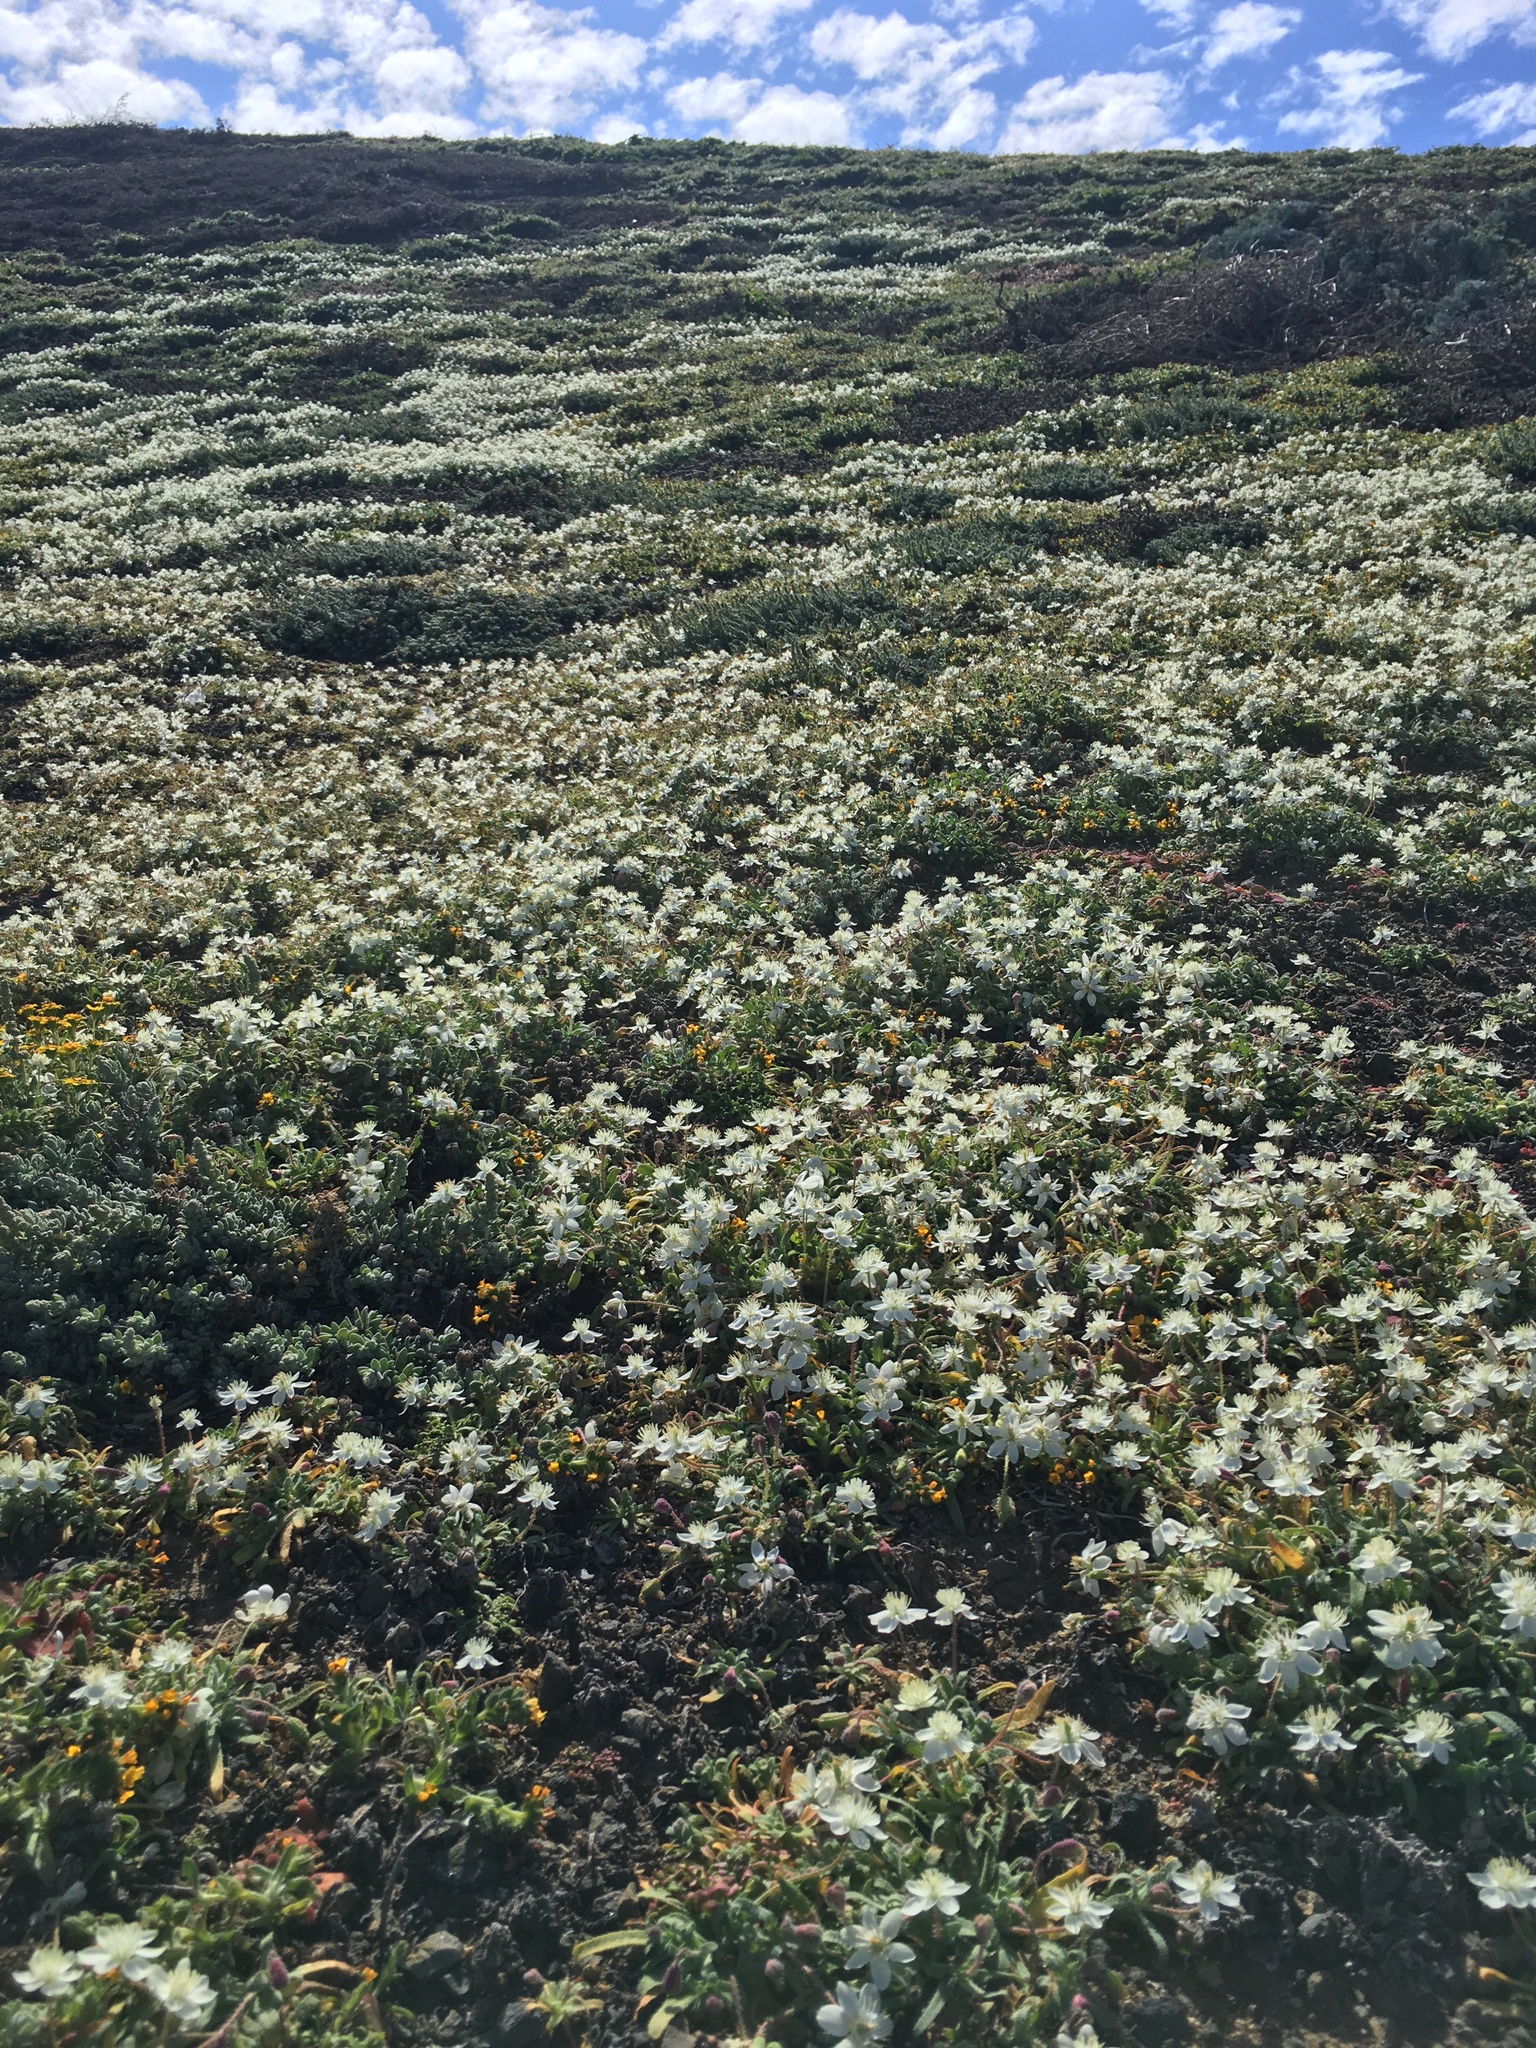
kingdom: Plantae
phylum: Tracheophyta
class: Magnoliopsida
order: Ranunculales
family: Papaveraceae
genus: Platystemon
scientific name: Platystemon californicus
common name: Cream-cups
